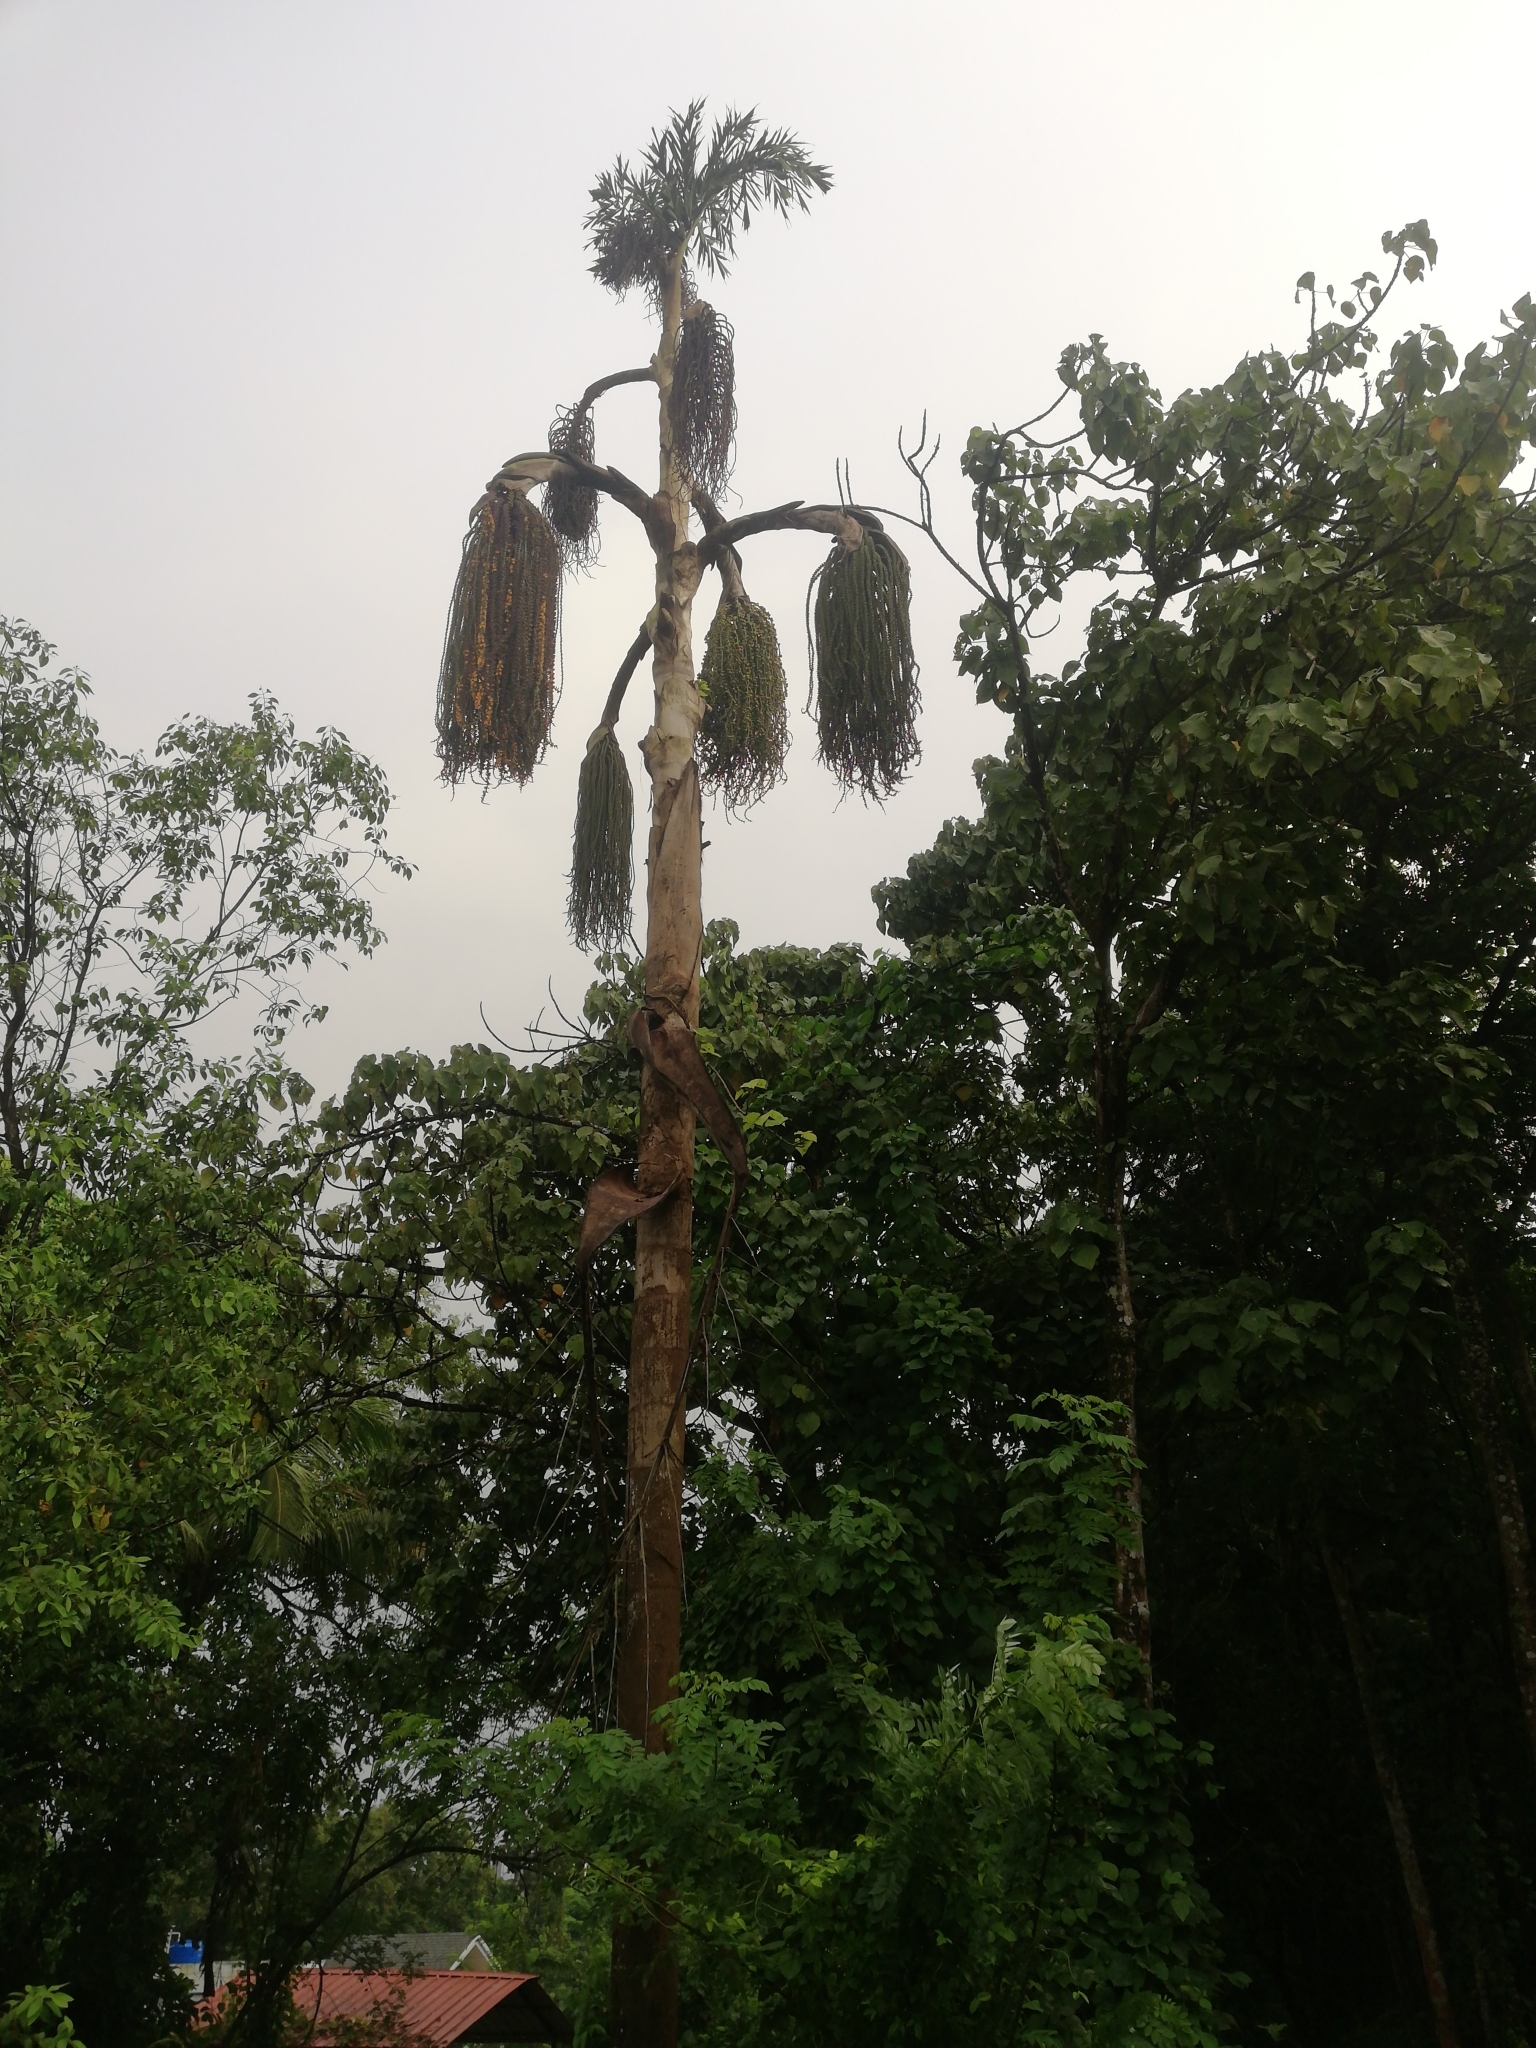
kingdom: Plantae
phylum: Tracheophyta
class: Liliopsida
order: Arecales
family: Arecaceae
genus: Caryota
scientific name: Caryota urens
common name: Jaggery palm
